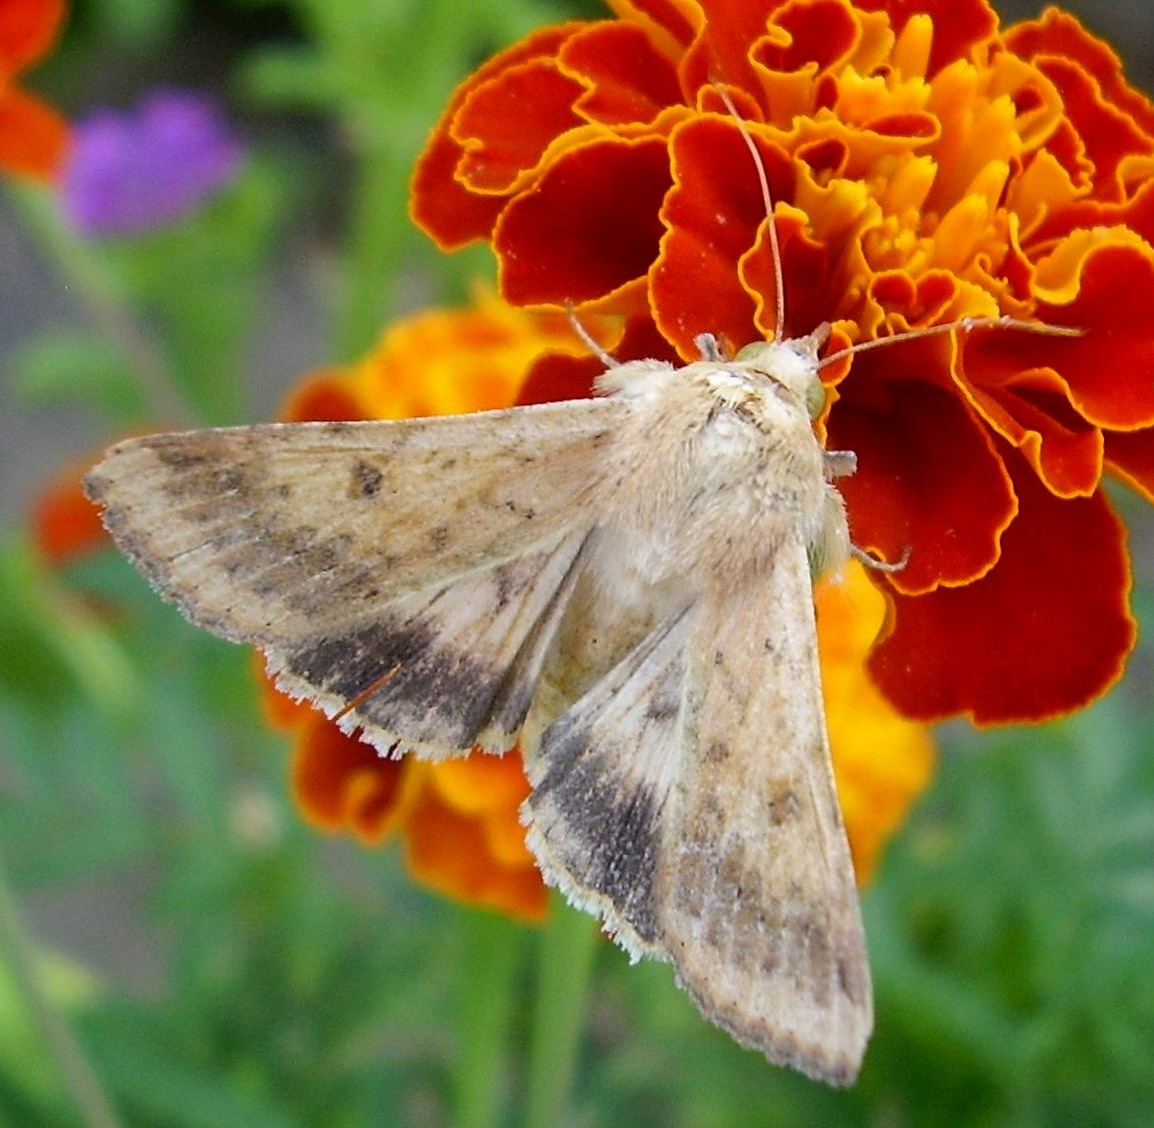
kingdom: Animalia
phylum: Arthropoda
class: Insecta
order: Lepidoptera
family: Noctuidae
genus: Helicoverpa
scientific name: Helicoverpa armigera
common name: Cotton bollworm
